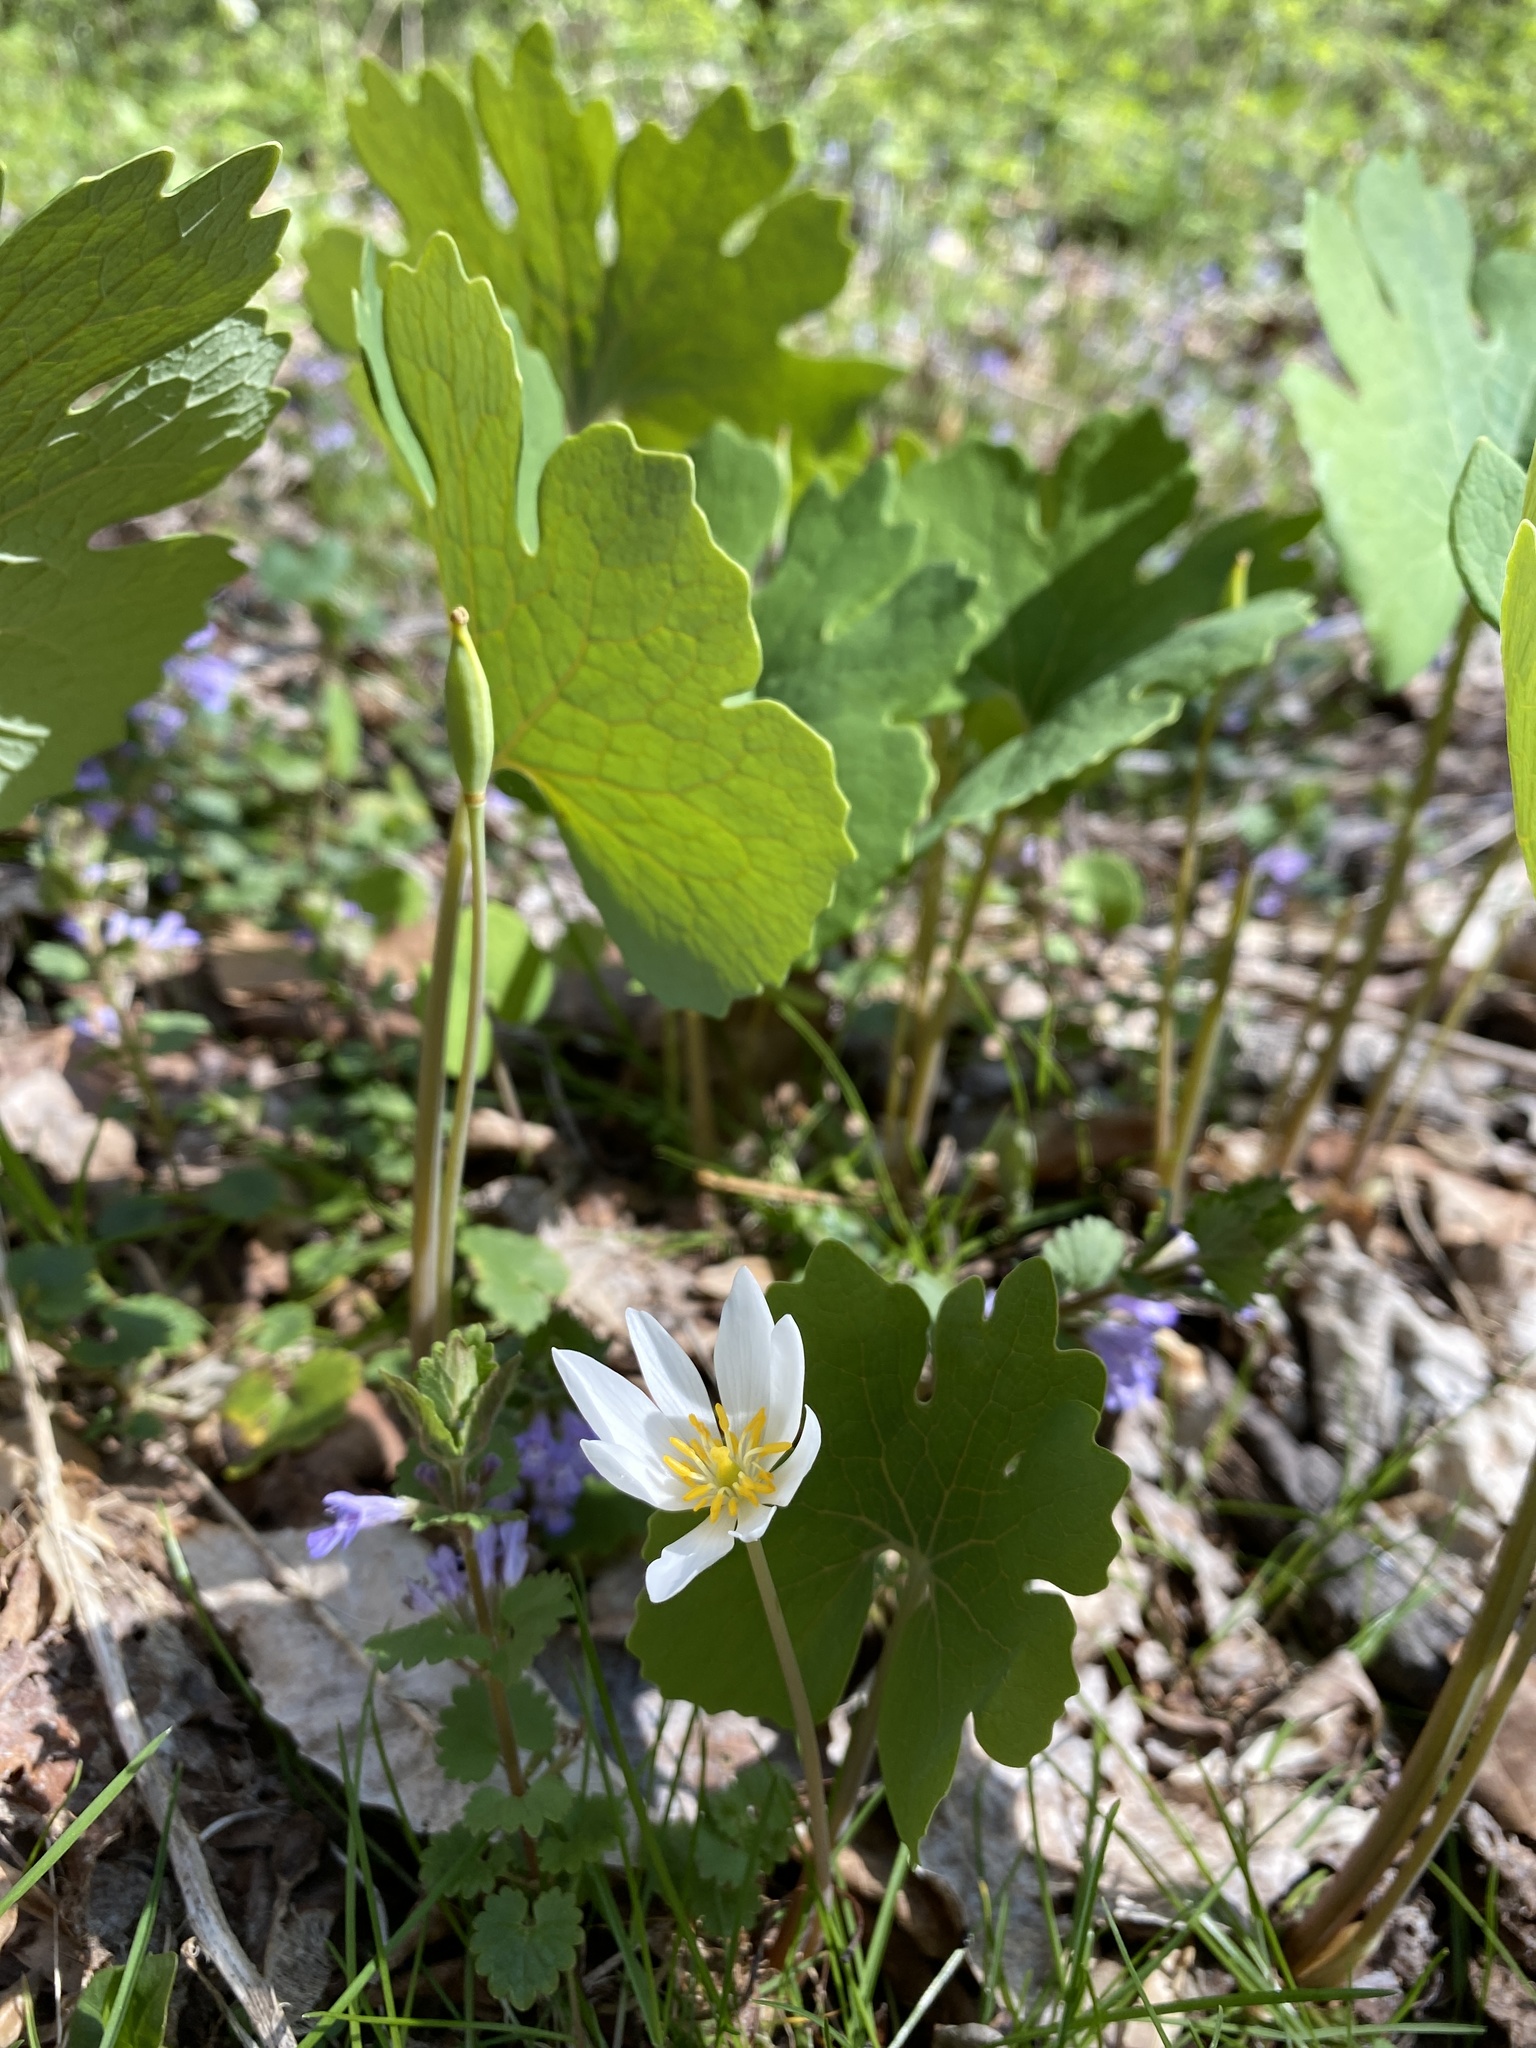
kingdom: Plantae
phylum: Tracheophyta
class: Magnoliopsida
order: Ranunculales
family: Papaveraceae
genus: Sanguinaria
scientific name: Sanguinaria canadensis
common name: Bloodroot
